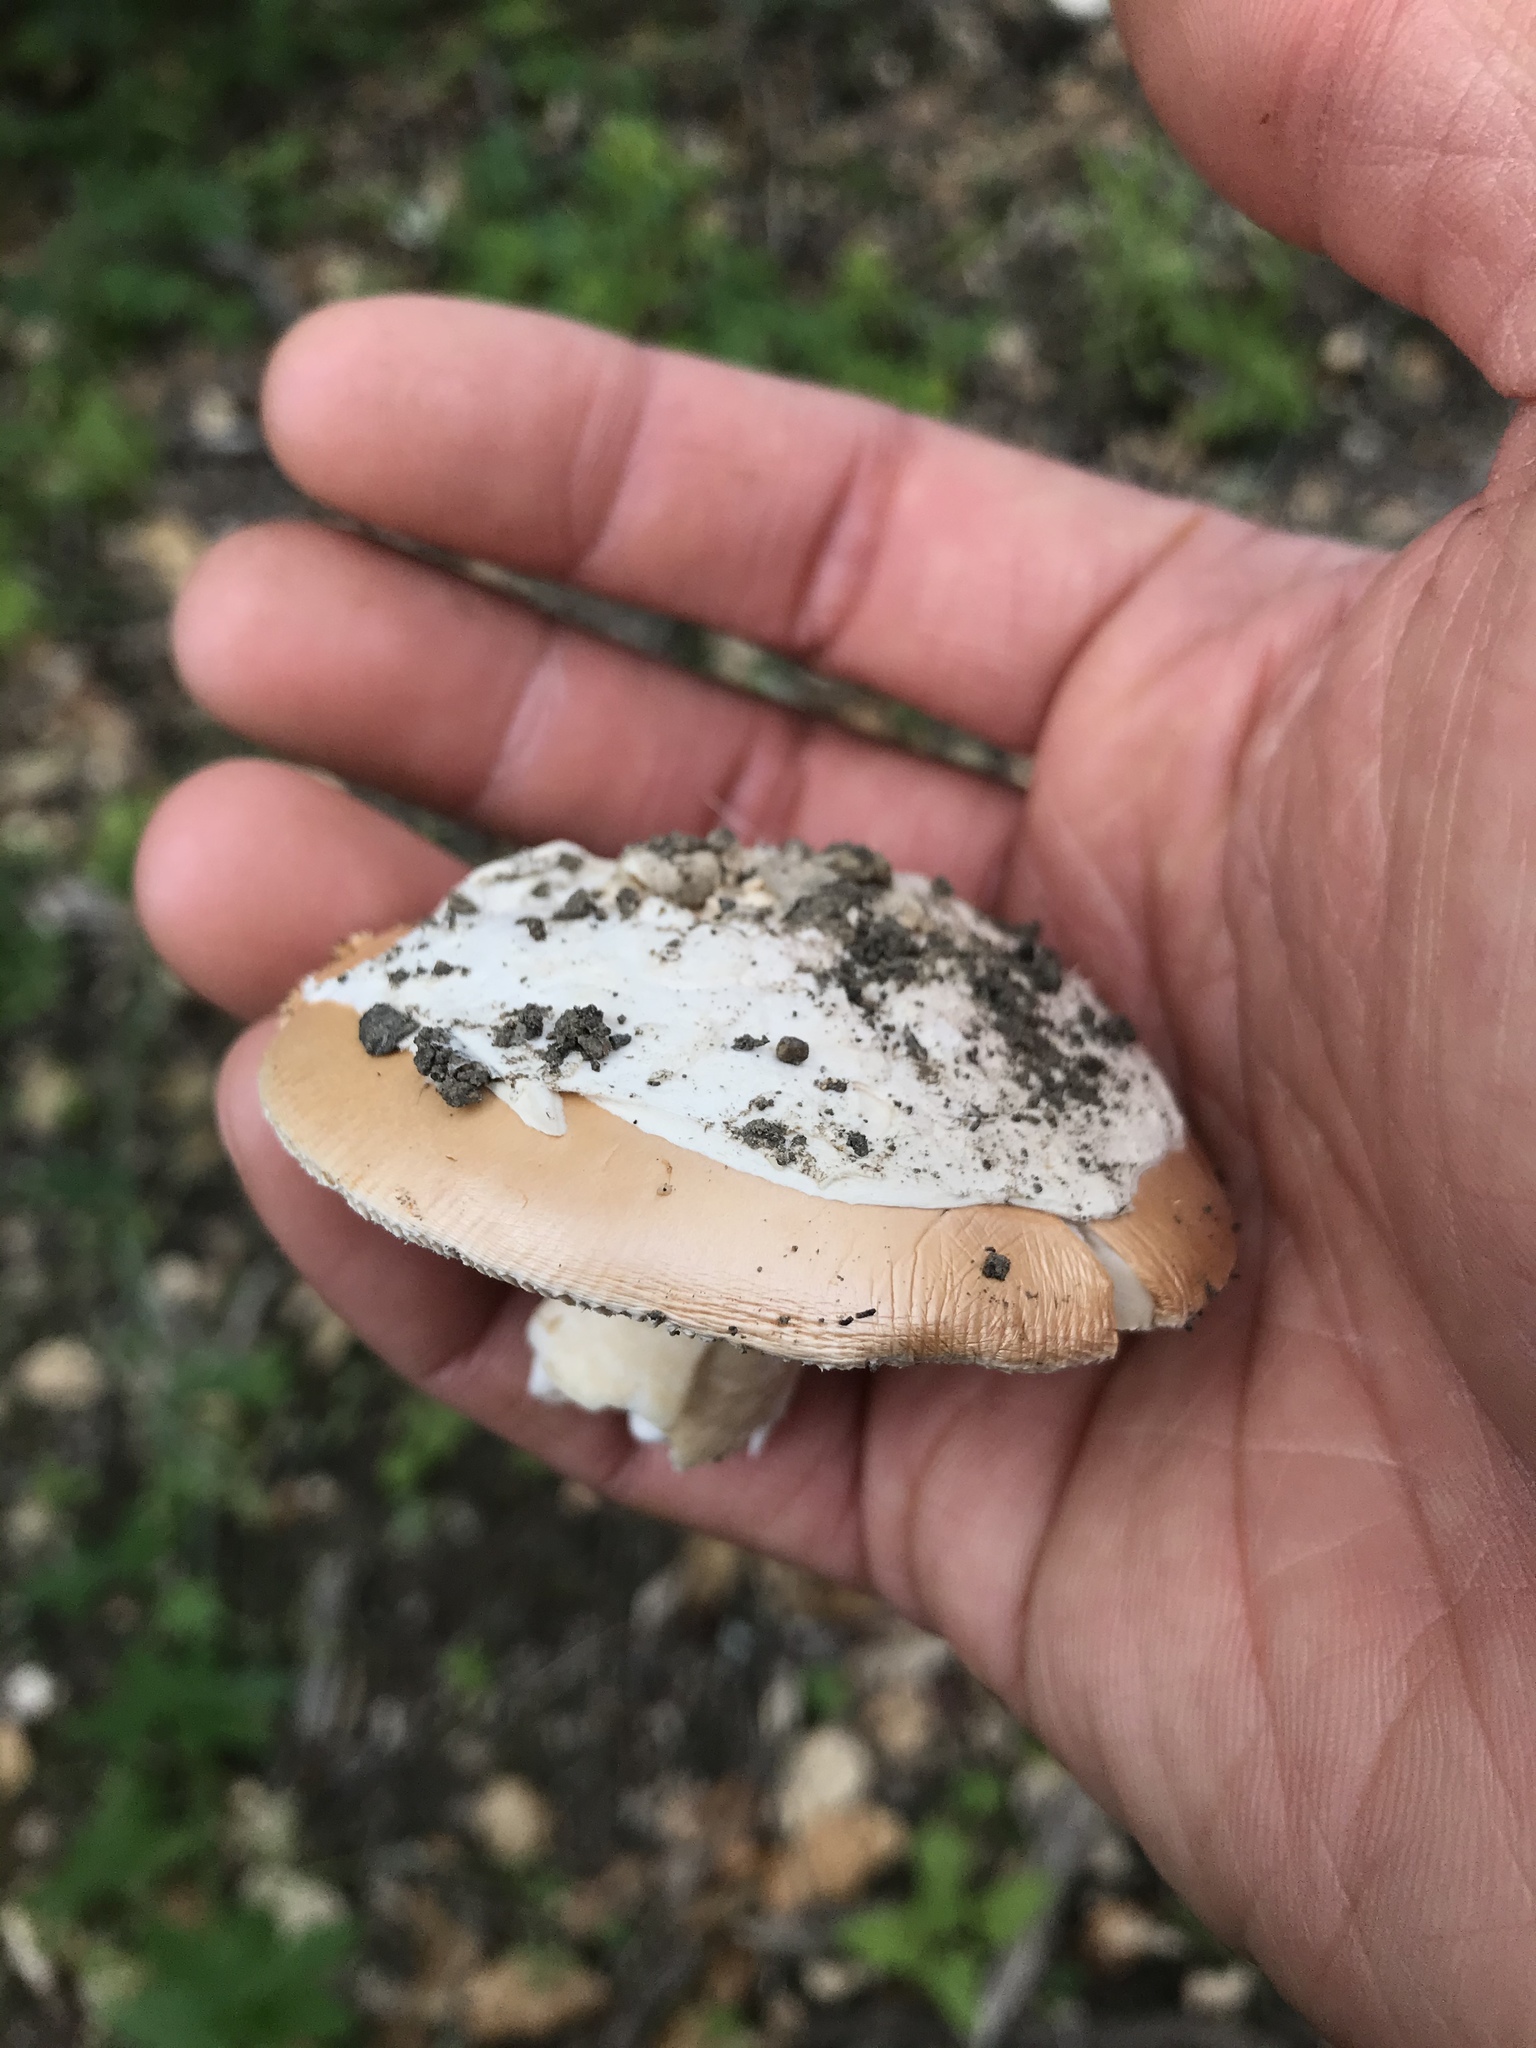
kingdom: Fungi
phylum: Basidiomycota
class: Agaricomycetes
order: Agaricales
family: Amanitaceae
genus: Amanita
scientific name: Amanita velosa
